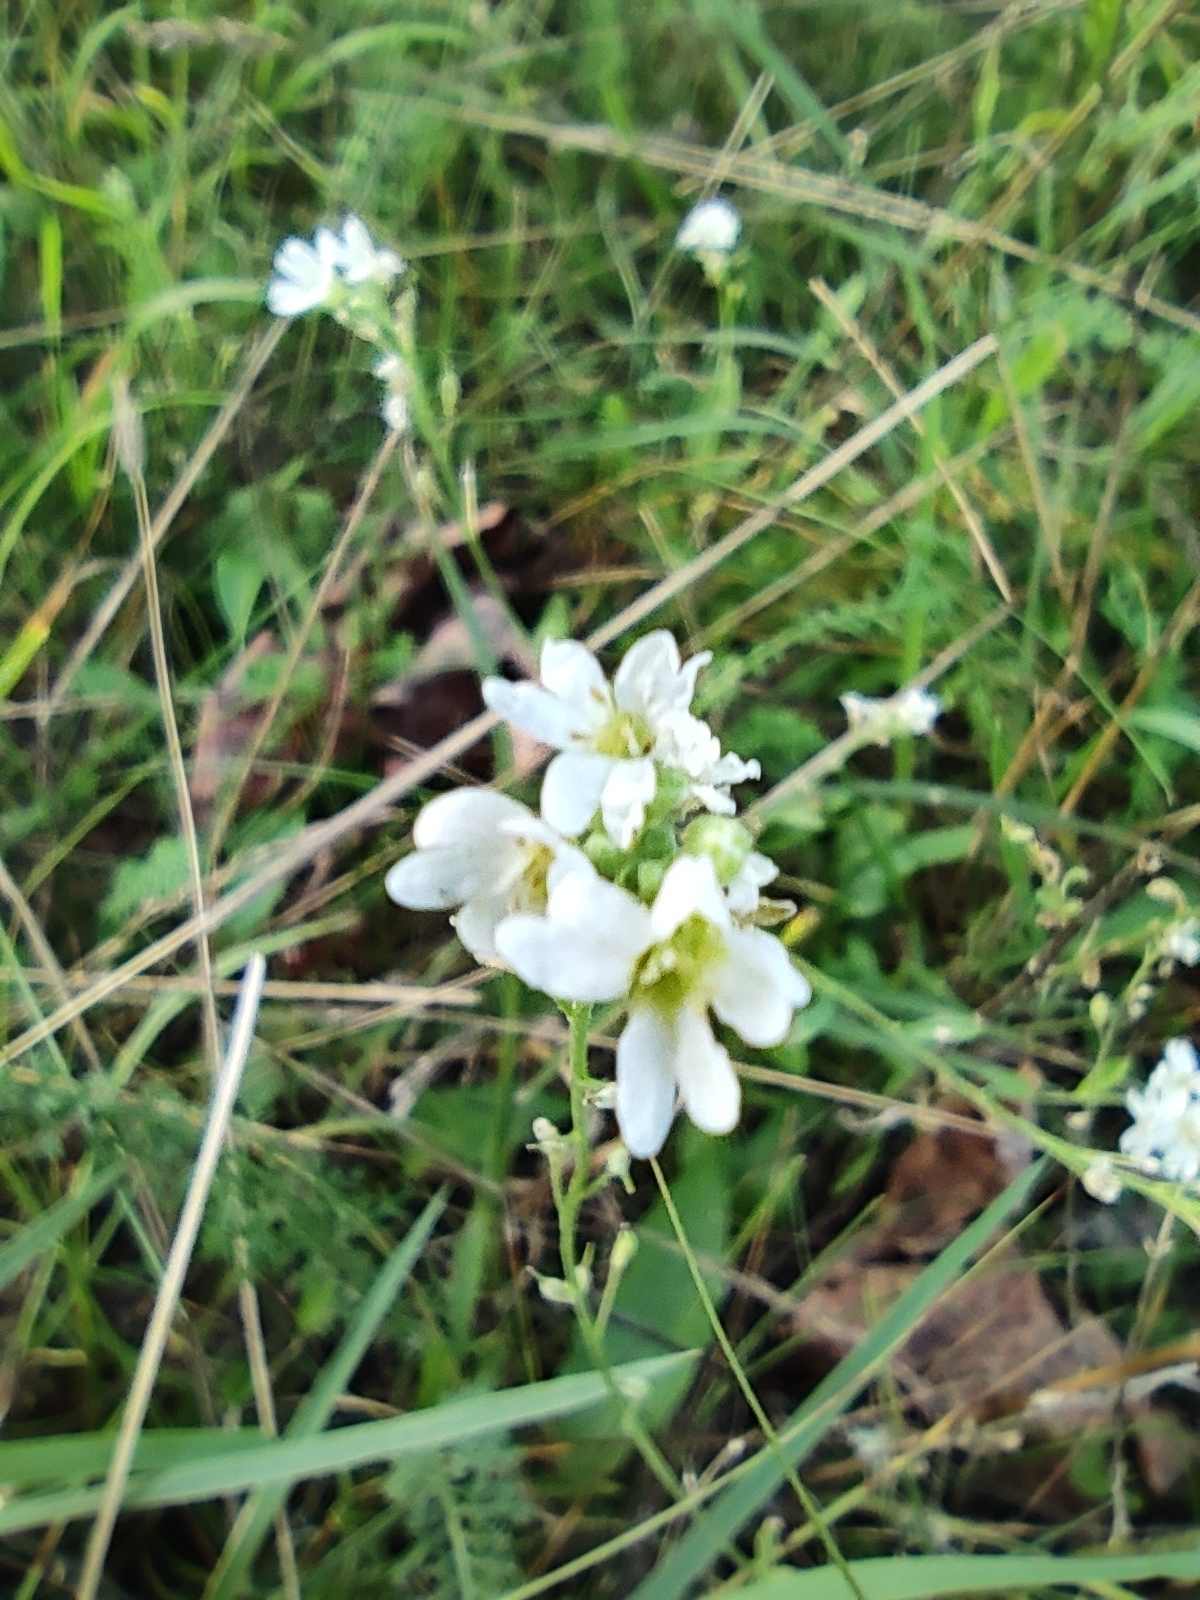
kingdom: Plantae
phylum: Tracheophyta
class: Magnoliopsida
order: Brassicales
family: Brassicaceae
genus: Berteroa
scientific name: Berteroa incana
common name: Hoary alison
